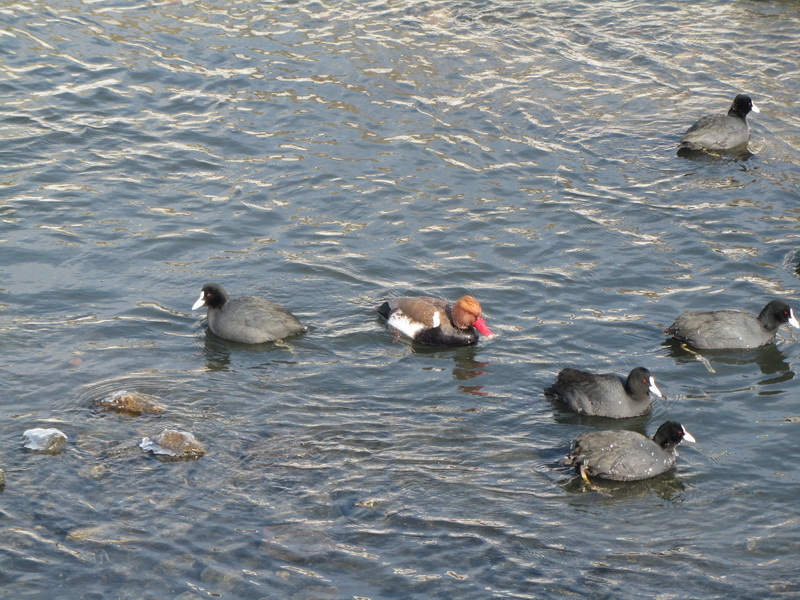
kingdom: Animalia
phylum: Chordata
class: Aves
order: Anseriformes
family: Anatidae
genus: Netta
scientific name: Netta rufina
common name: Red-crested pochard
